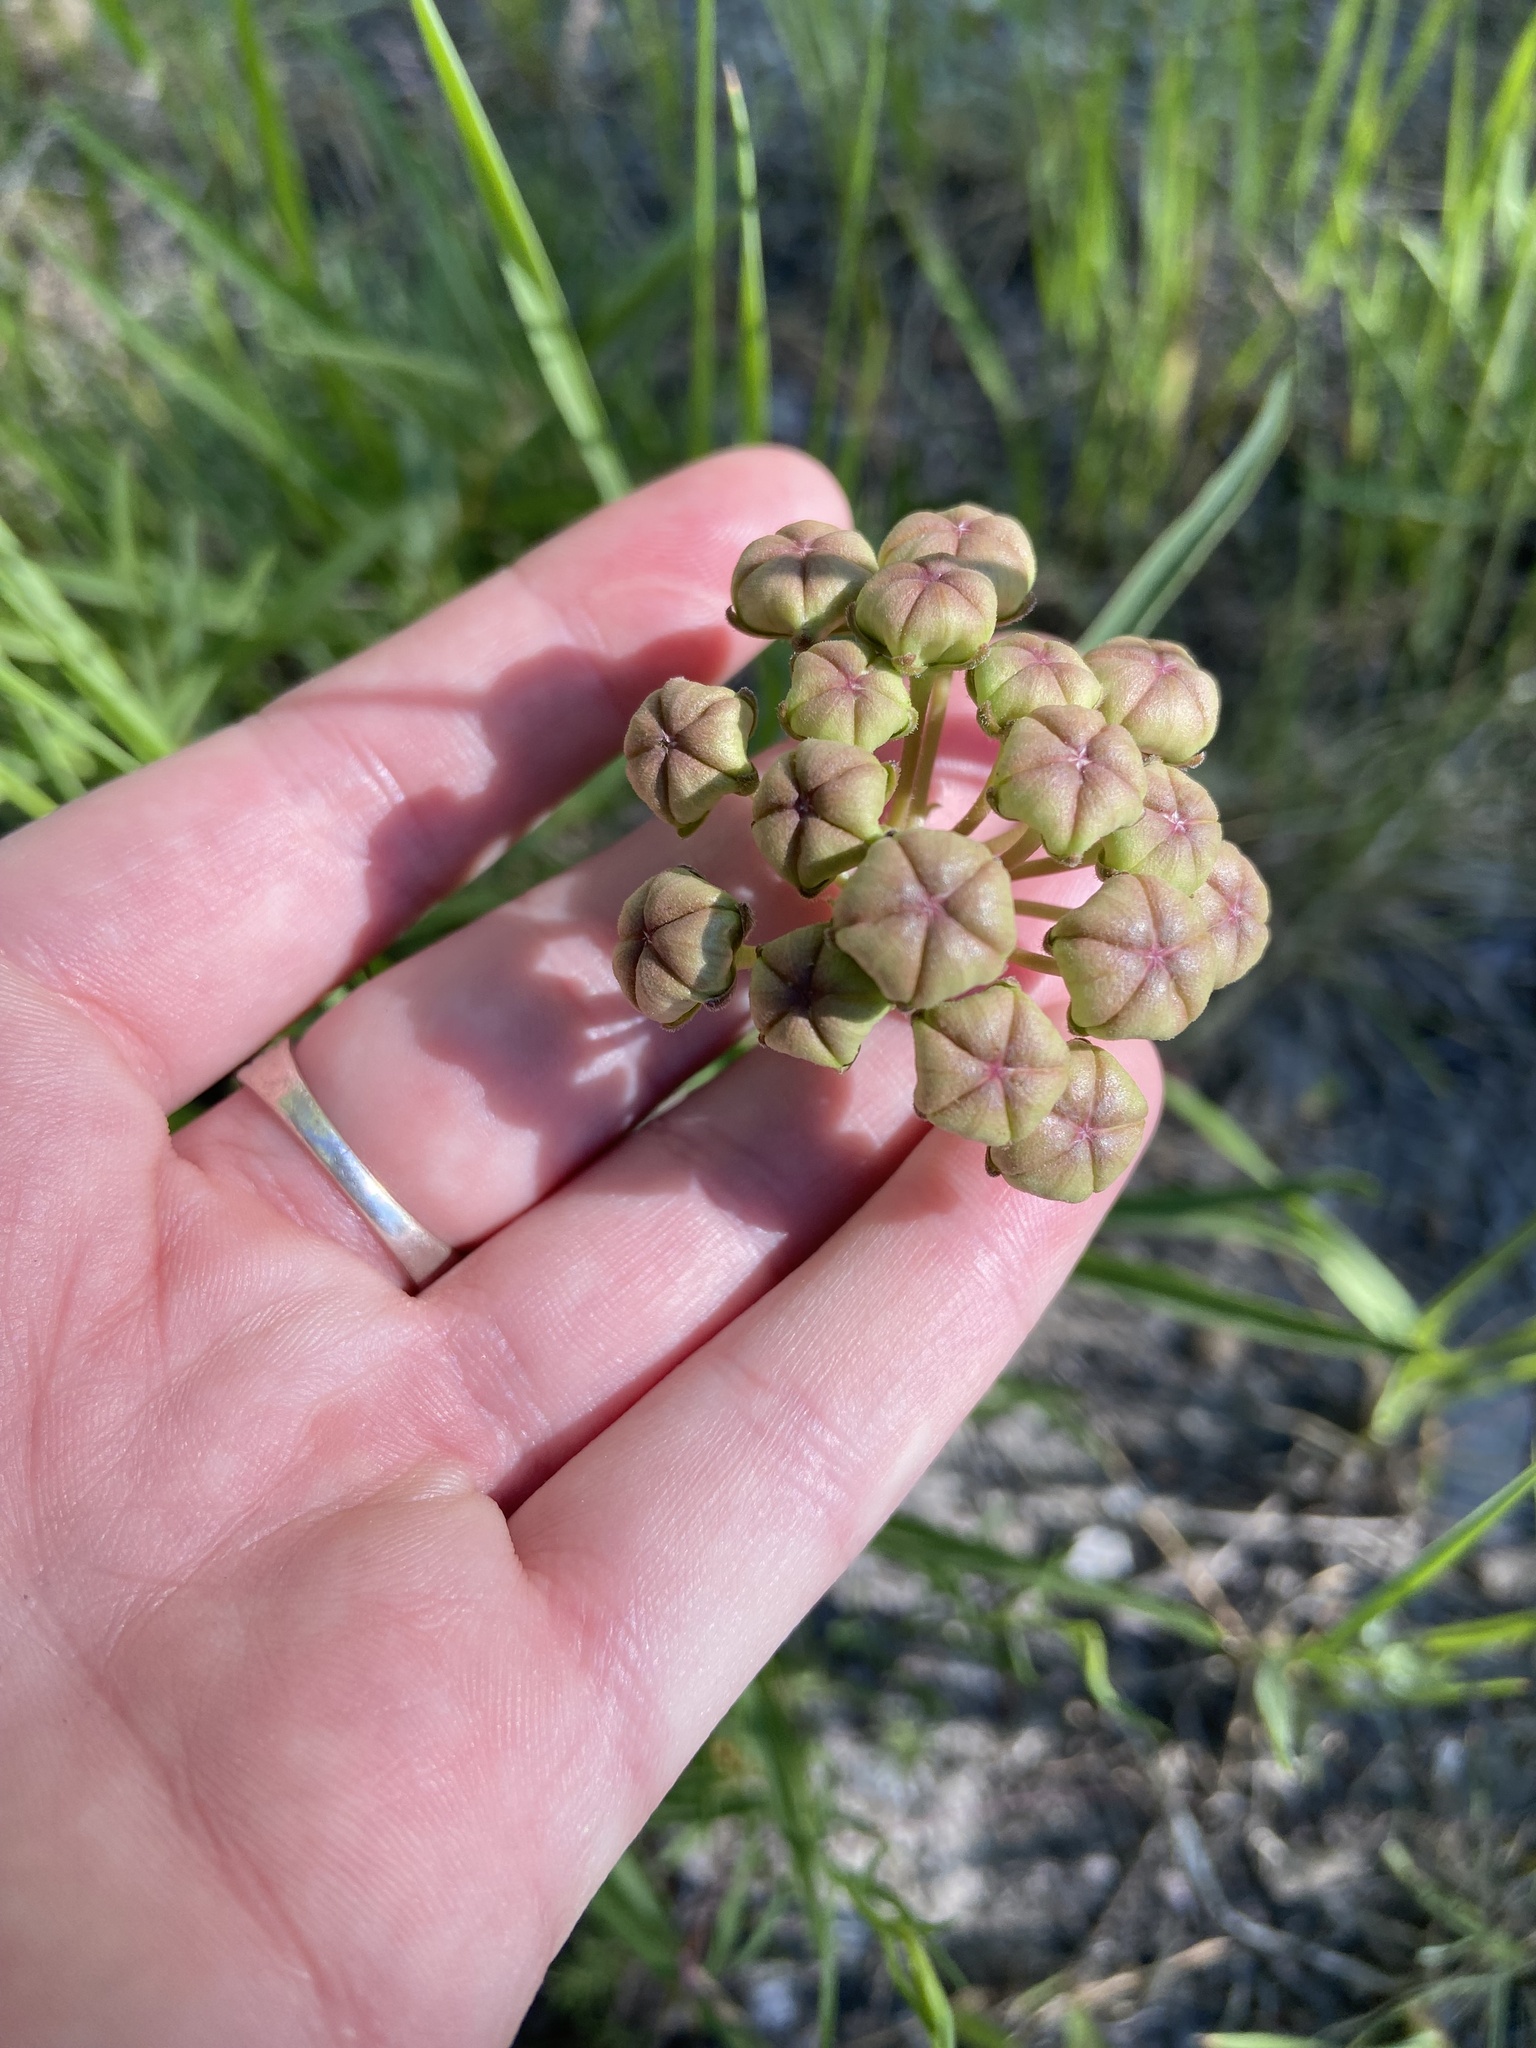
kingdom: Plantae
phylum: Tracheophyta
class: Magnoliopsida
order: Gentianales
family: Apocynaceae
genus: Asclepias
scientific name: Asclepias asperula
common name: Antelope horns
